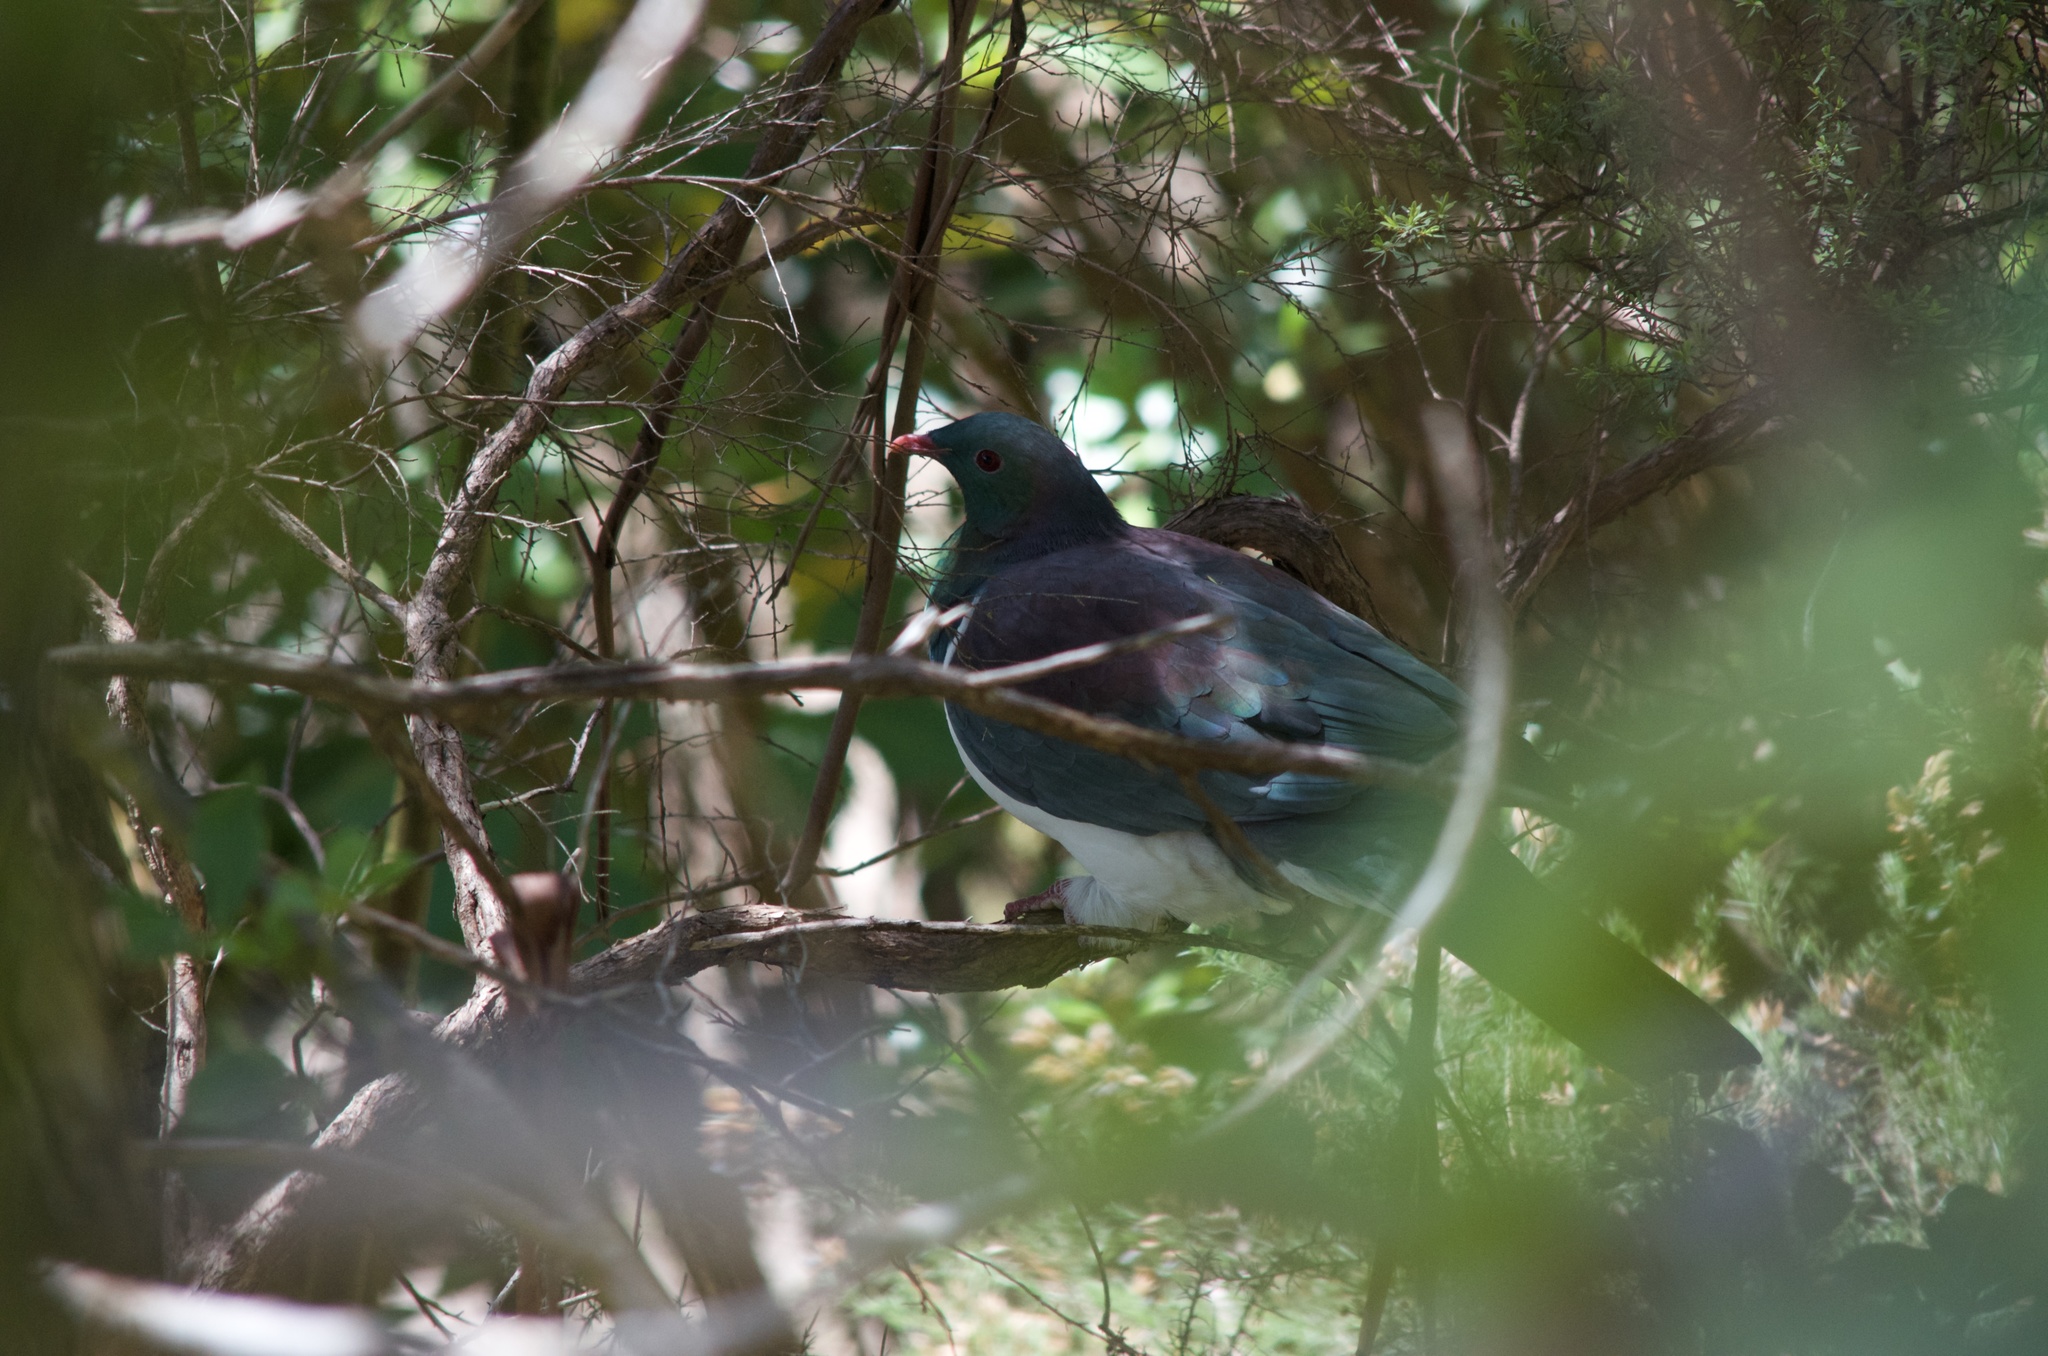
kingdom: Animalia
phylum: Chordata
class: Aves
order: Columbiformes
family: Columbidae
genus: Hemiphaga
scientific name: Hemiphaga novaeseelandiae
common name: New zealand pigeon
